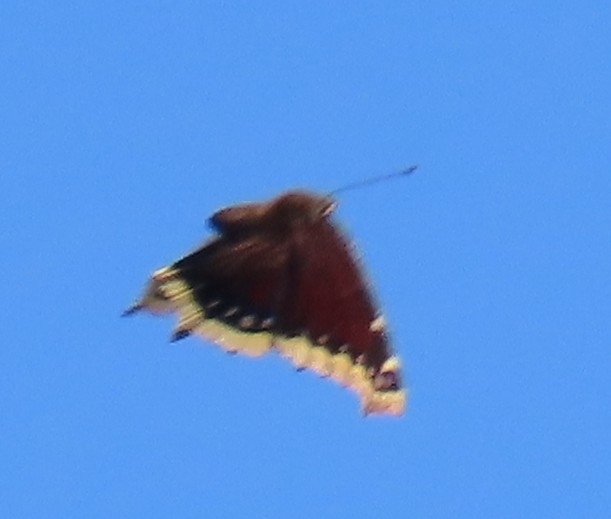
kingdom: Animalia
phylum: Arthropoda
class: Insecta
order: Lepidoptera
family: Nymphalidae
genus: Nymphalis
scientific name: Nymphalis antiopa
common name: Camberwell beauty
